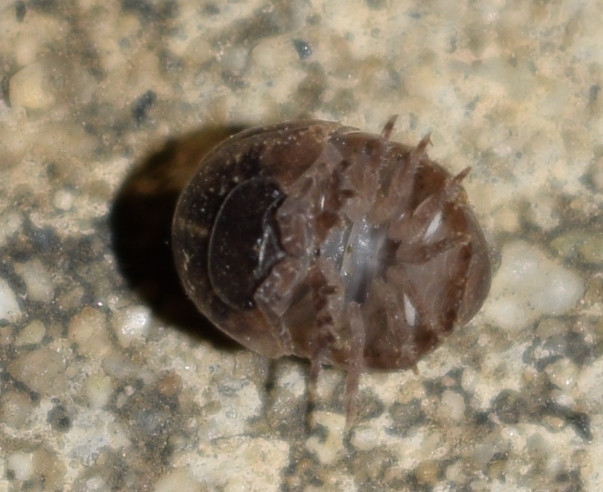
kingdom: Animalia
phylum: Arthropoda
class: Malacostraca
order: Isopoda
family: Armadillidiidae
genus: Armadillidium
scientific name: Armadillidium vulgare
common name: Common pill woodlouse
